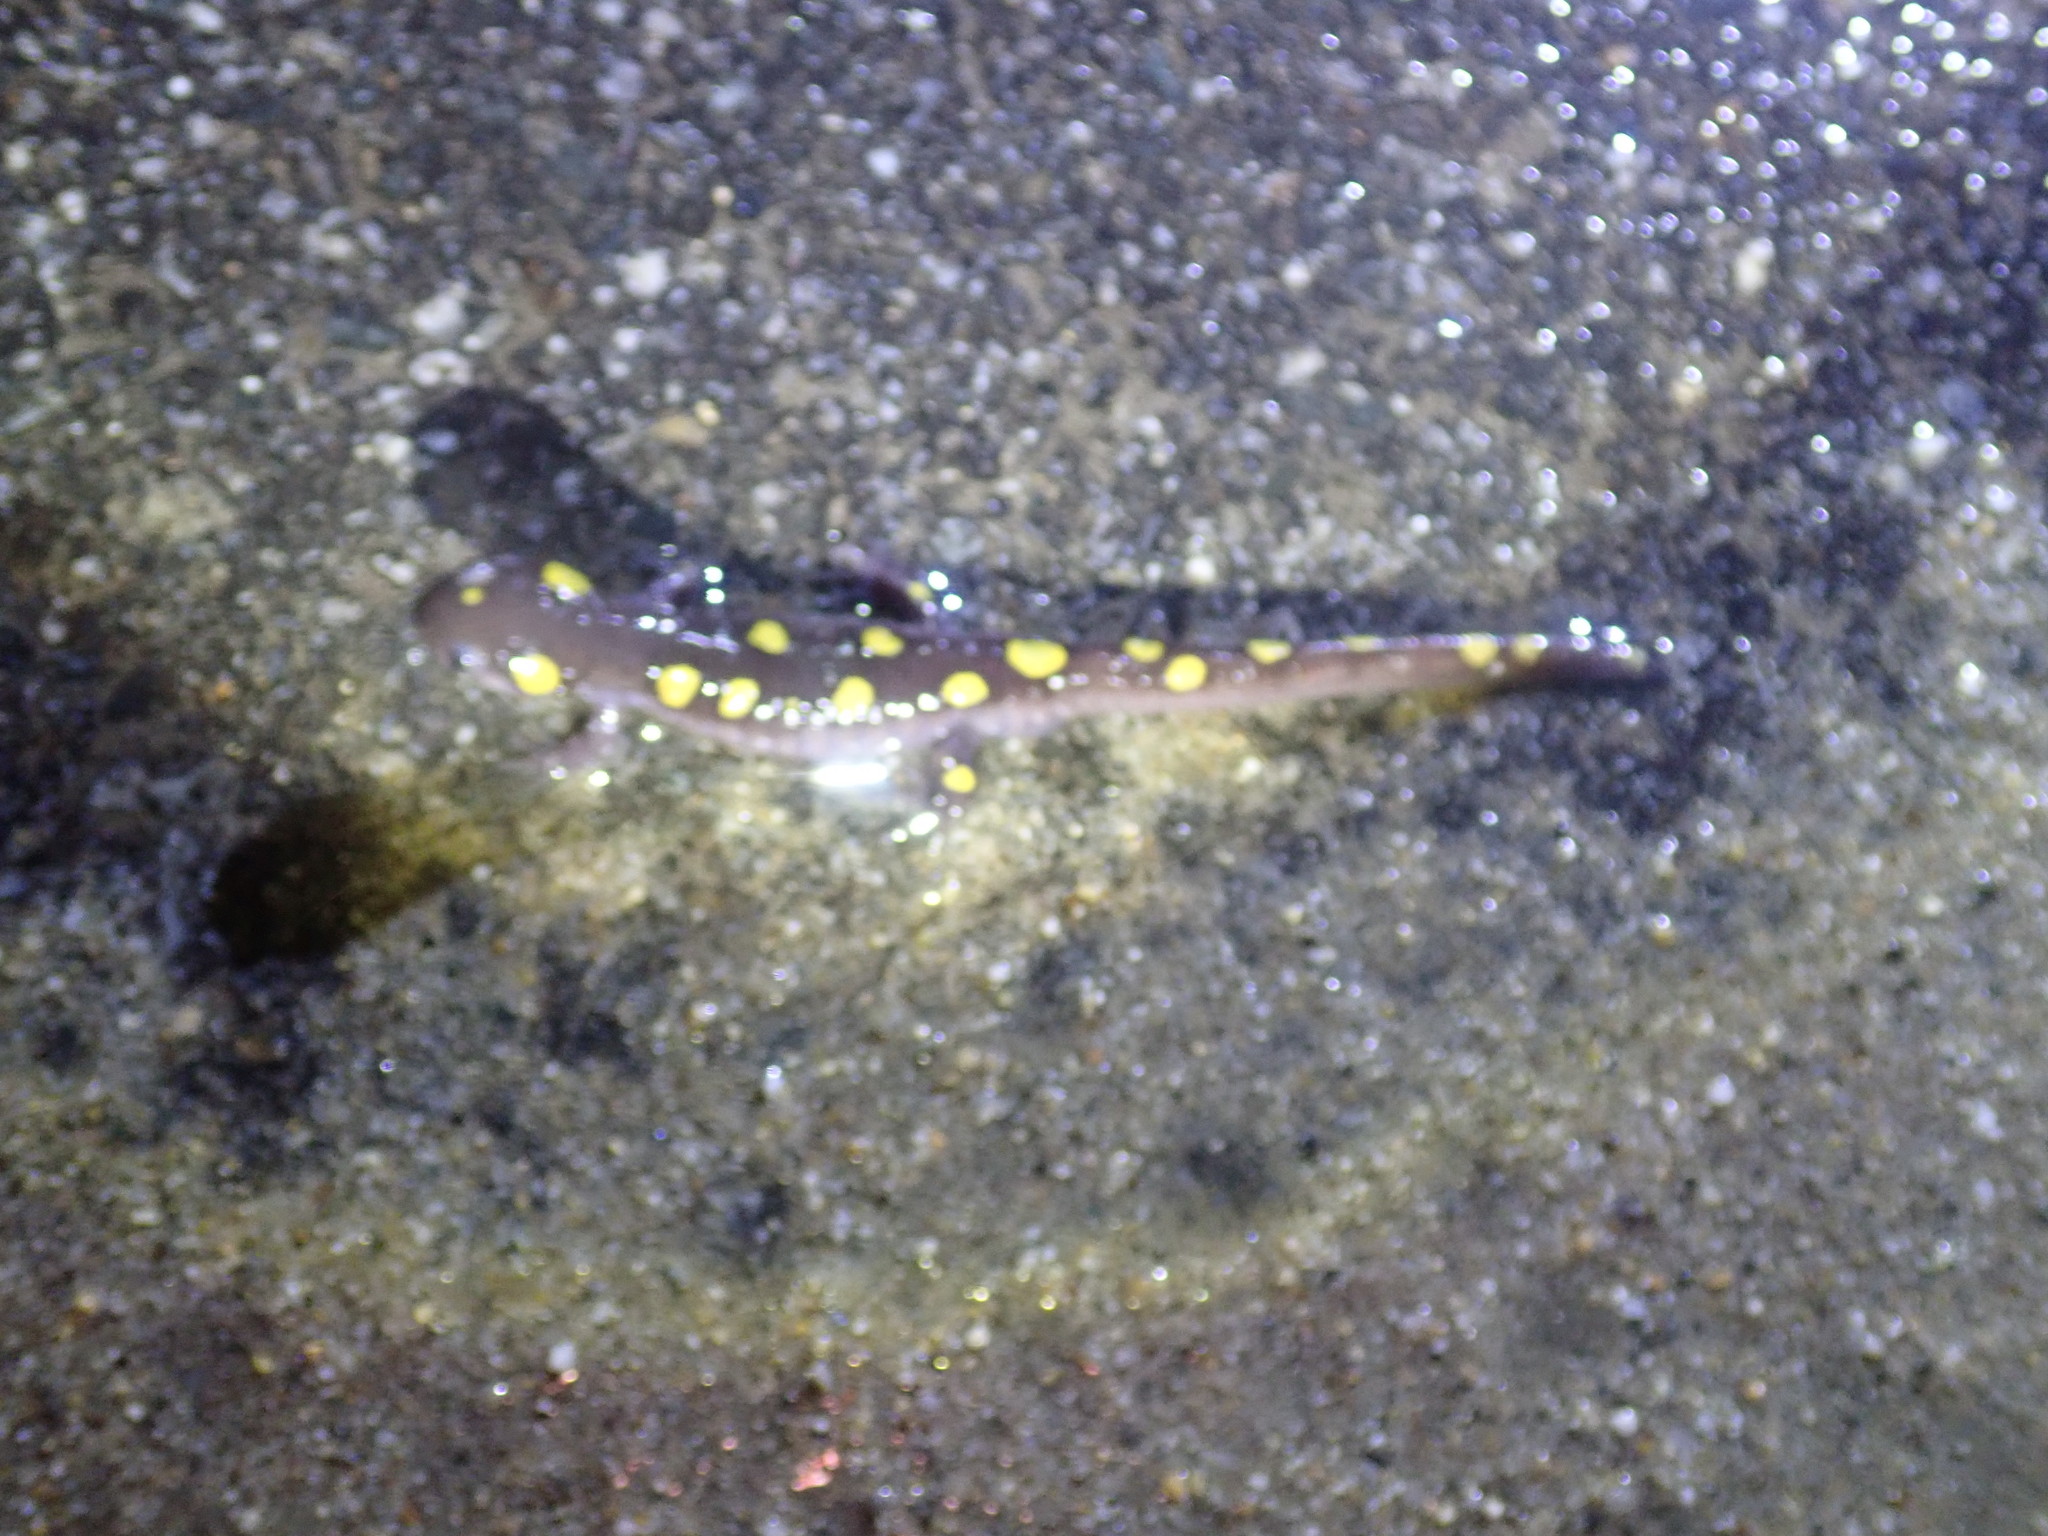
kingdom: Animalia
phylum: Chordata
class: Amphibia
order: Caudata
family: Ambystomatidae
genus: Ambystoma
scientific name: Ambystoma maculatum
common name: Spotted salamander
